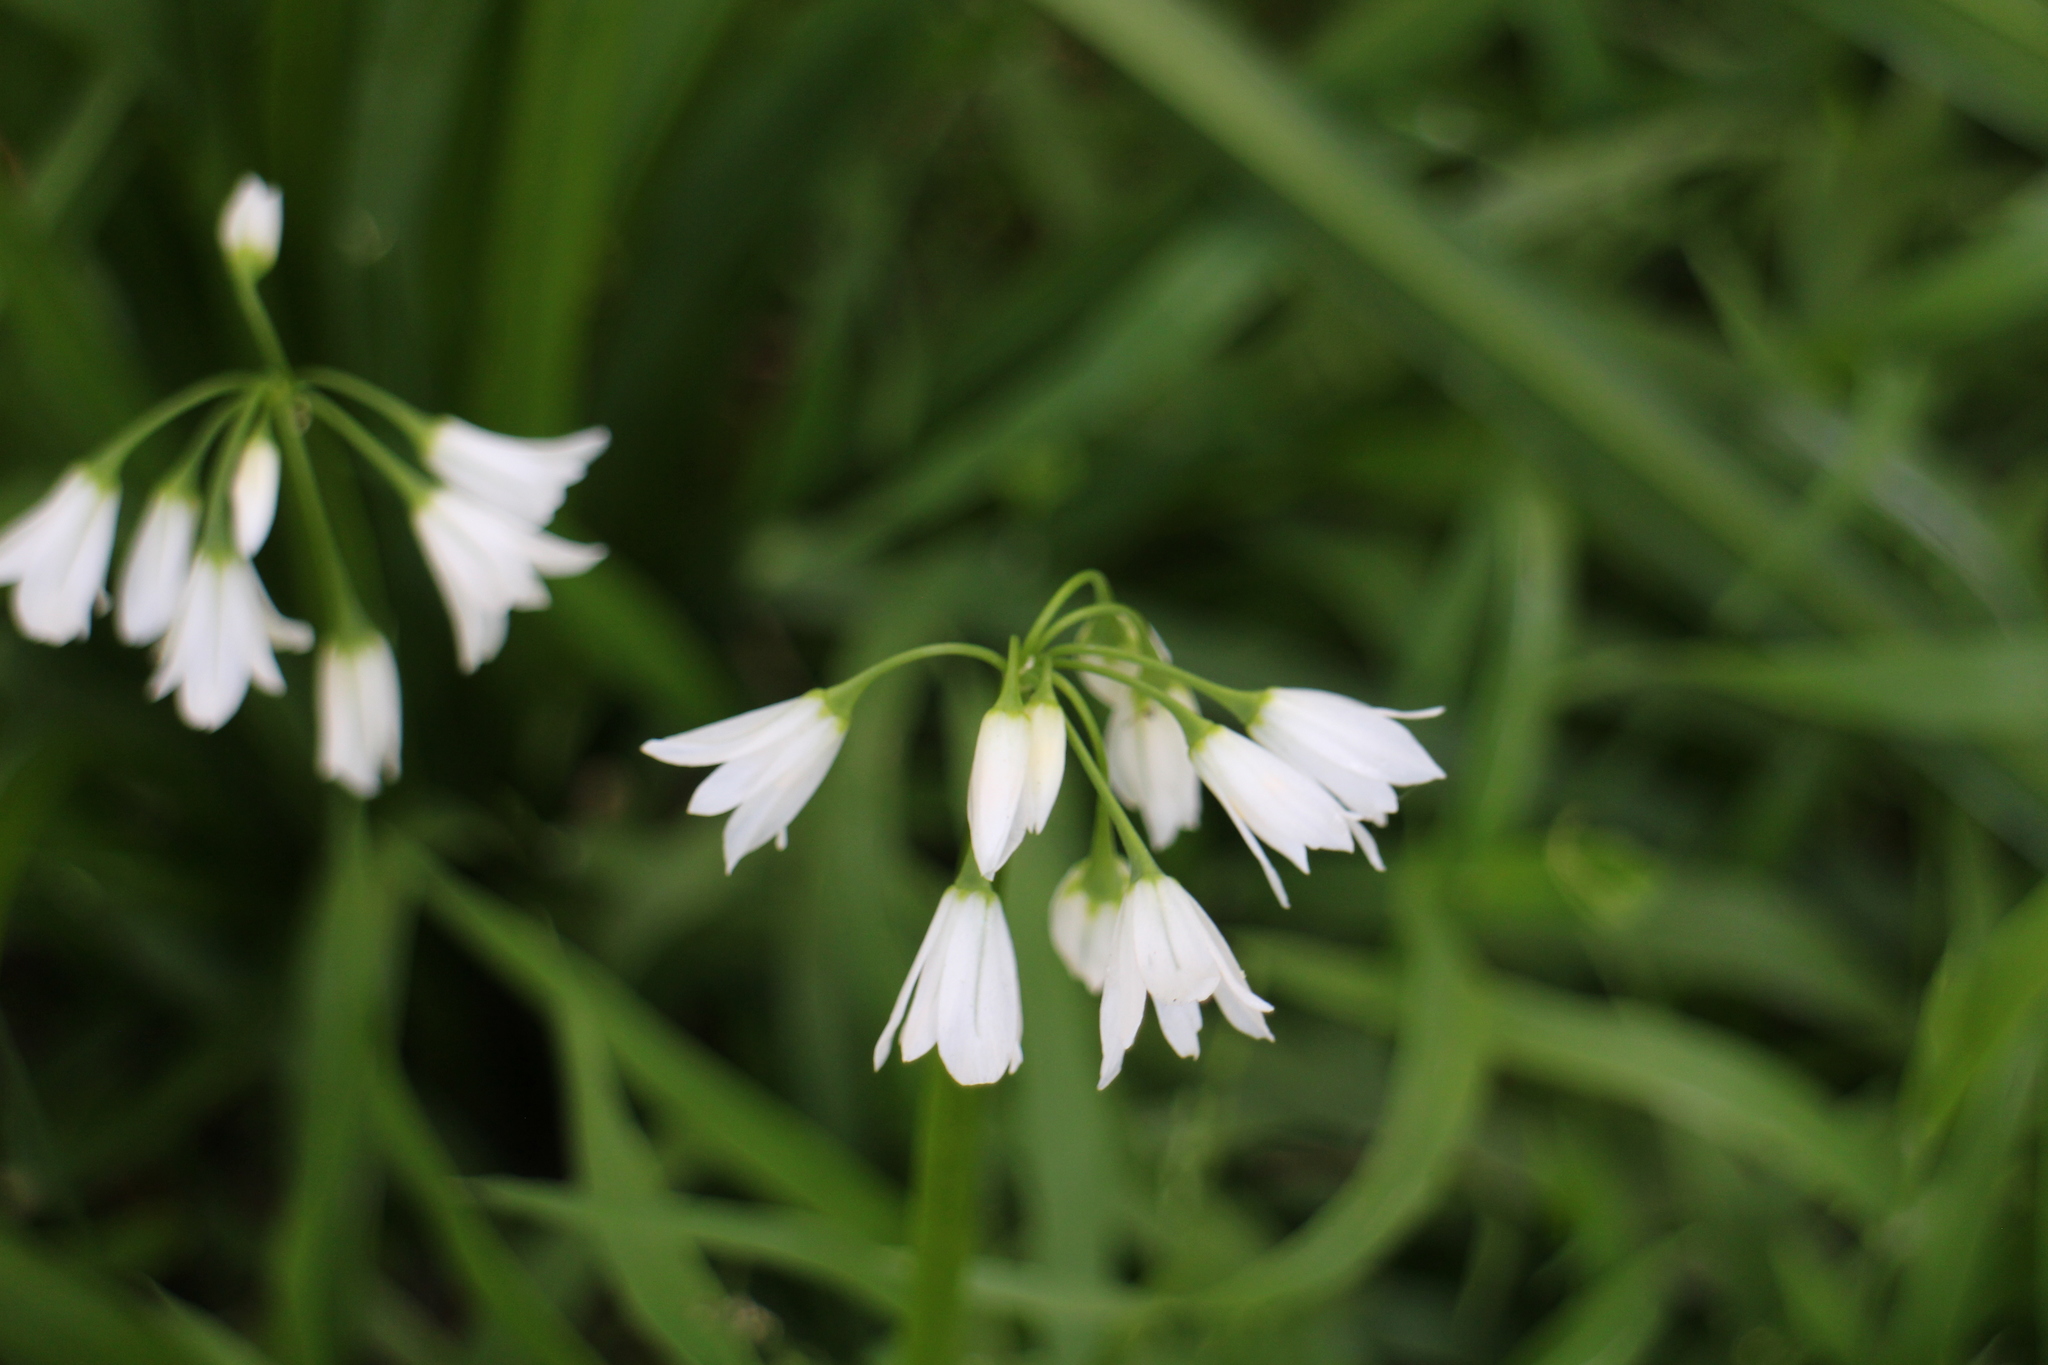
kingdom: Plantae
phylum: Tracheophyta
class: Liliopsida
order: Asparagales
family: Amaryllidaceae
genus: Allium
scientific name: Allium triquetrum
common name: Three-cornered garlic
